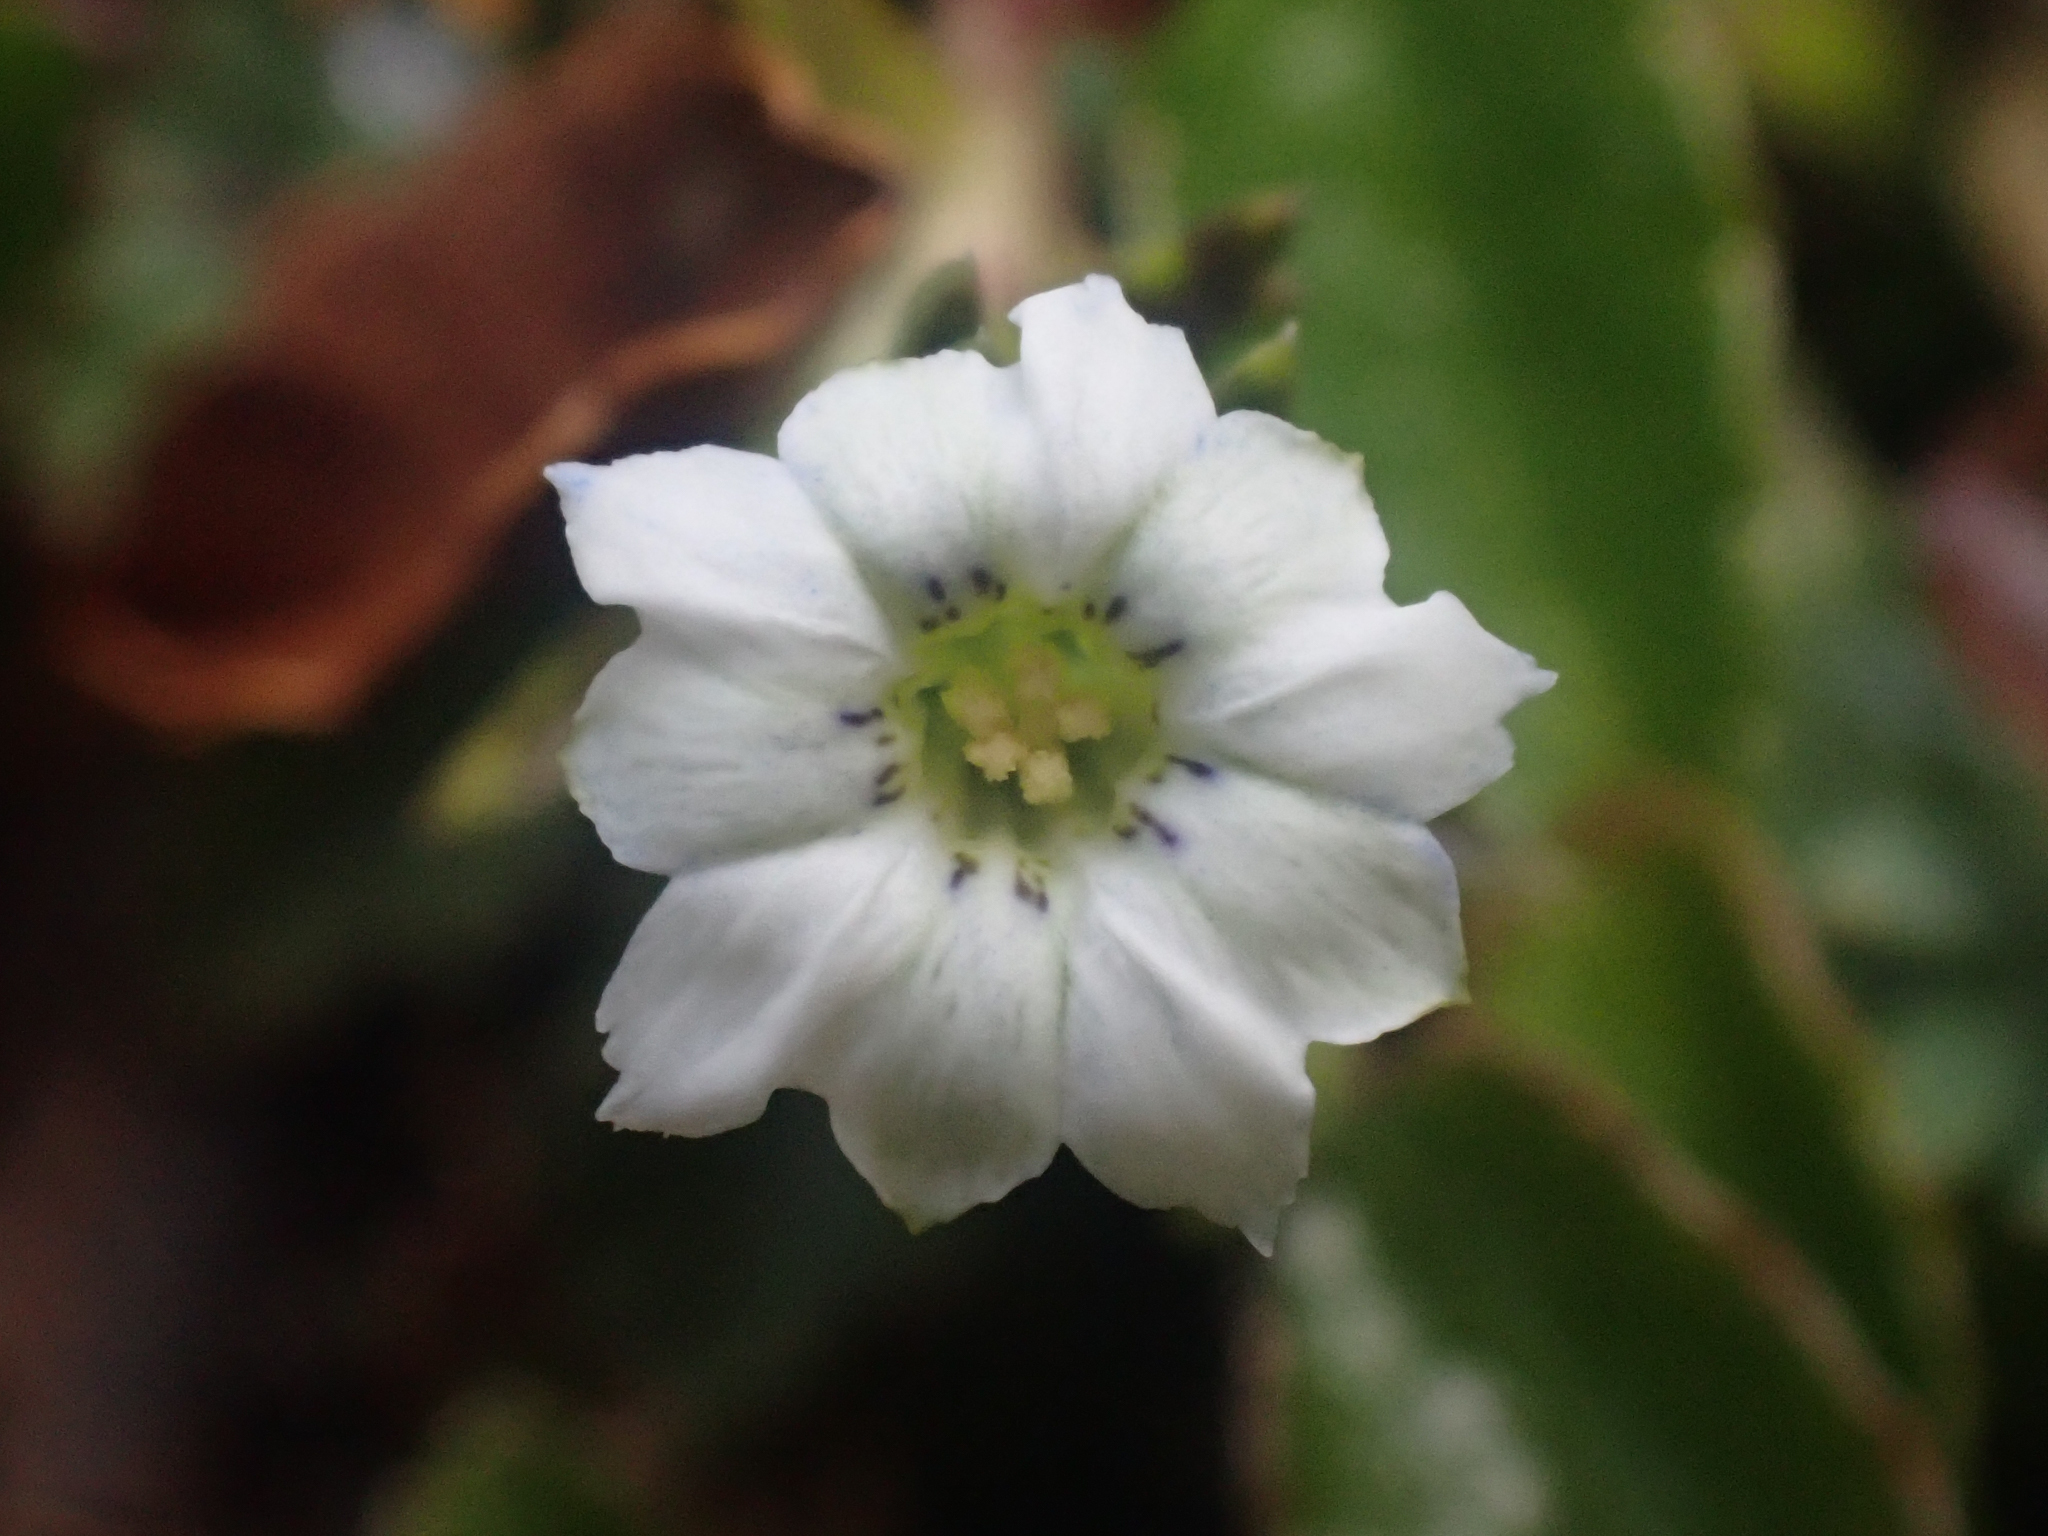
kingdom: Plantae
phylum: Tracheophyta
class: Magnoliopsida
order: Gentianales
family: Gentianaceae
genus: Gentiana
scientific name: Gentiana sedifolia
